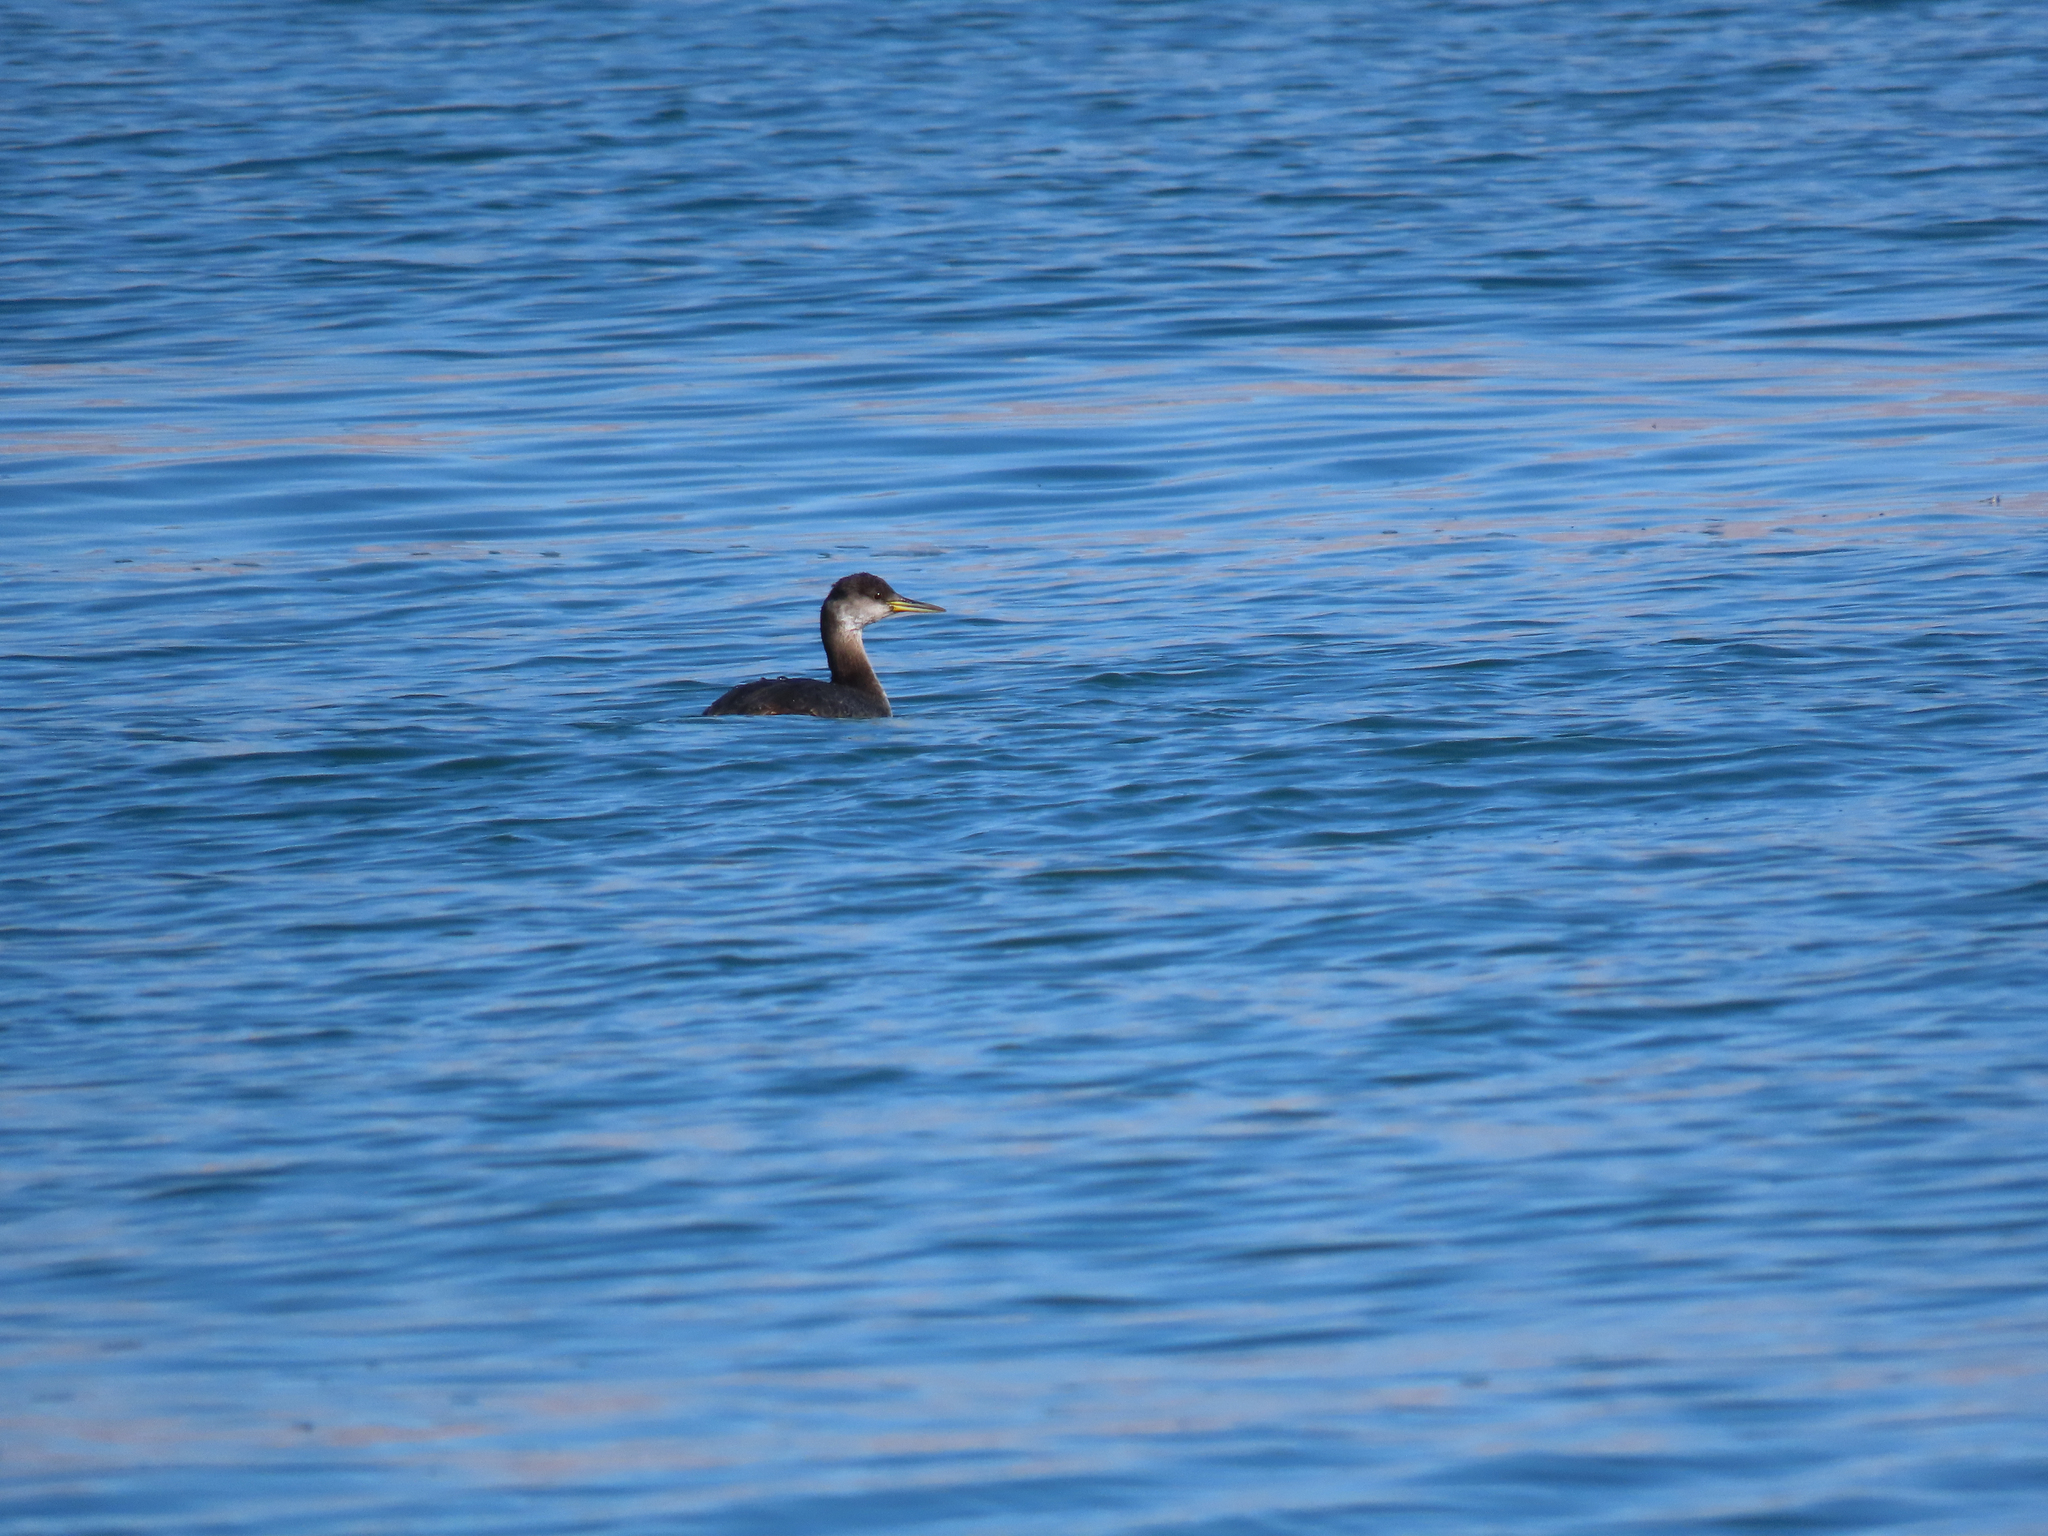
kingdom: Animalia
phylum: Chordata
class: Aves
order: Podicipediformes
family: Podicipedidae
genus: Podiceps
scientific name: Podiceps grisegena
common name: Red-necked grebe
